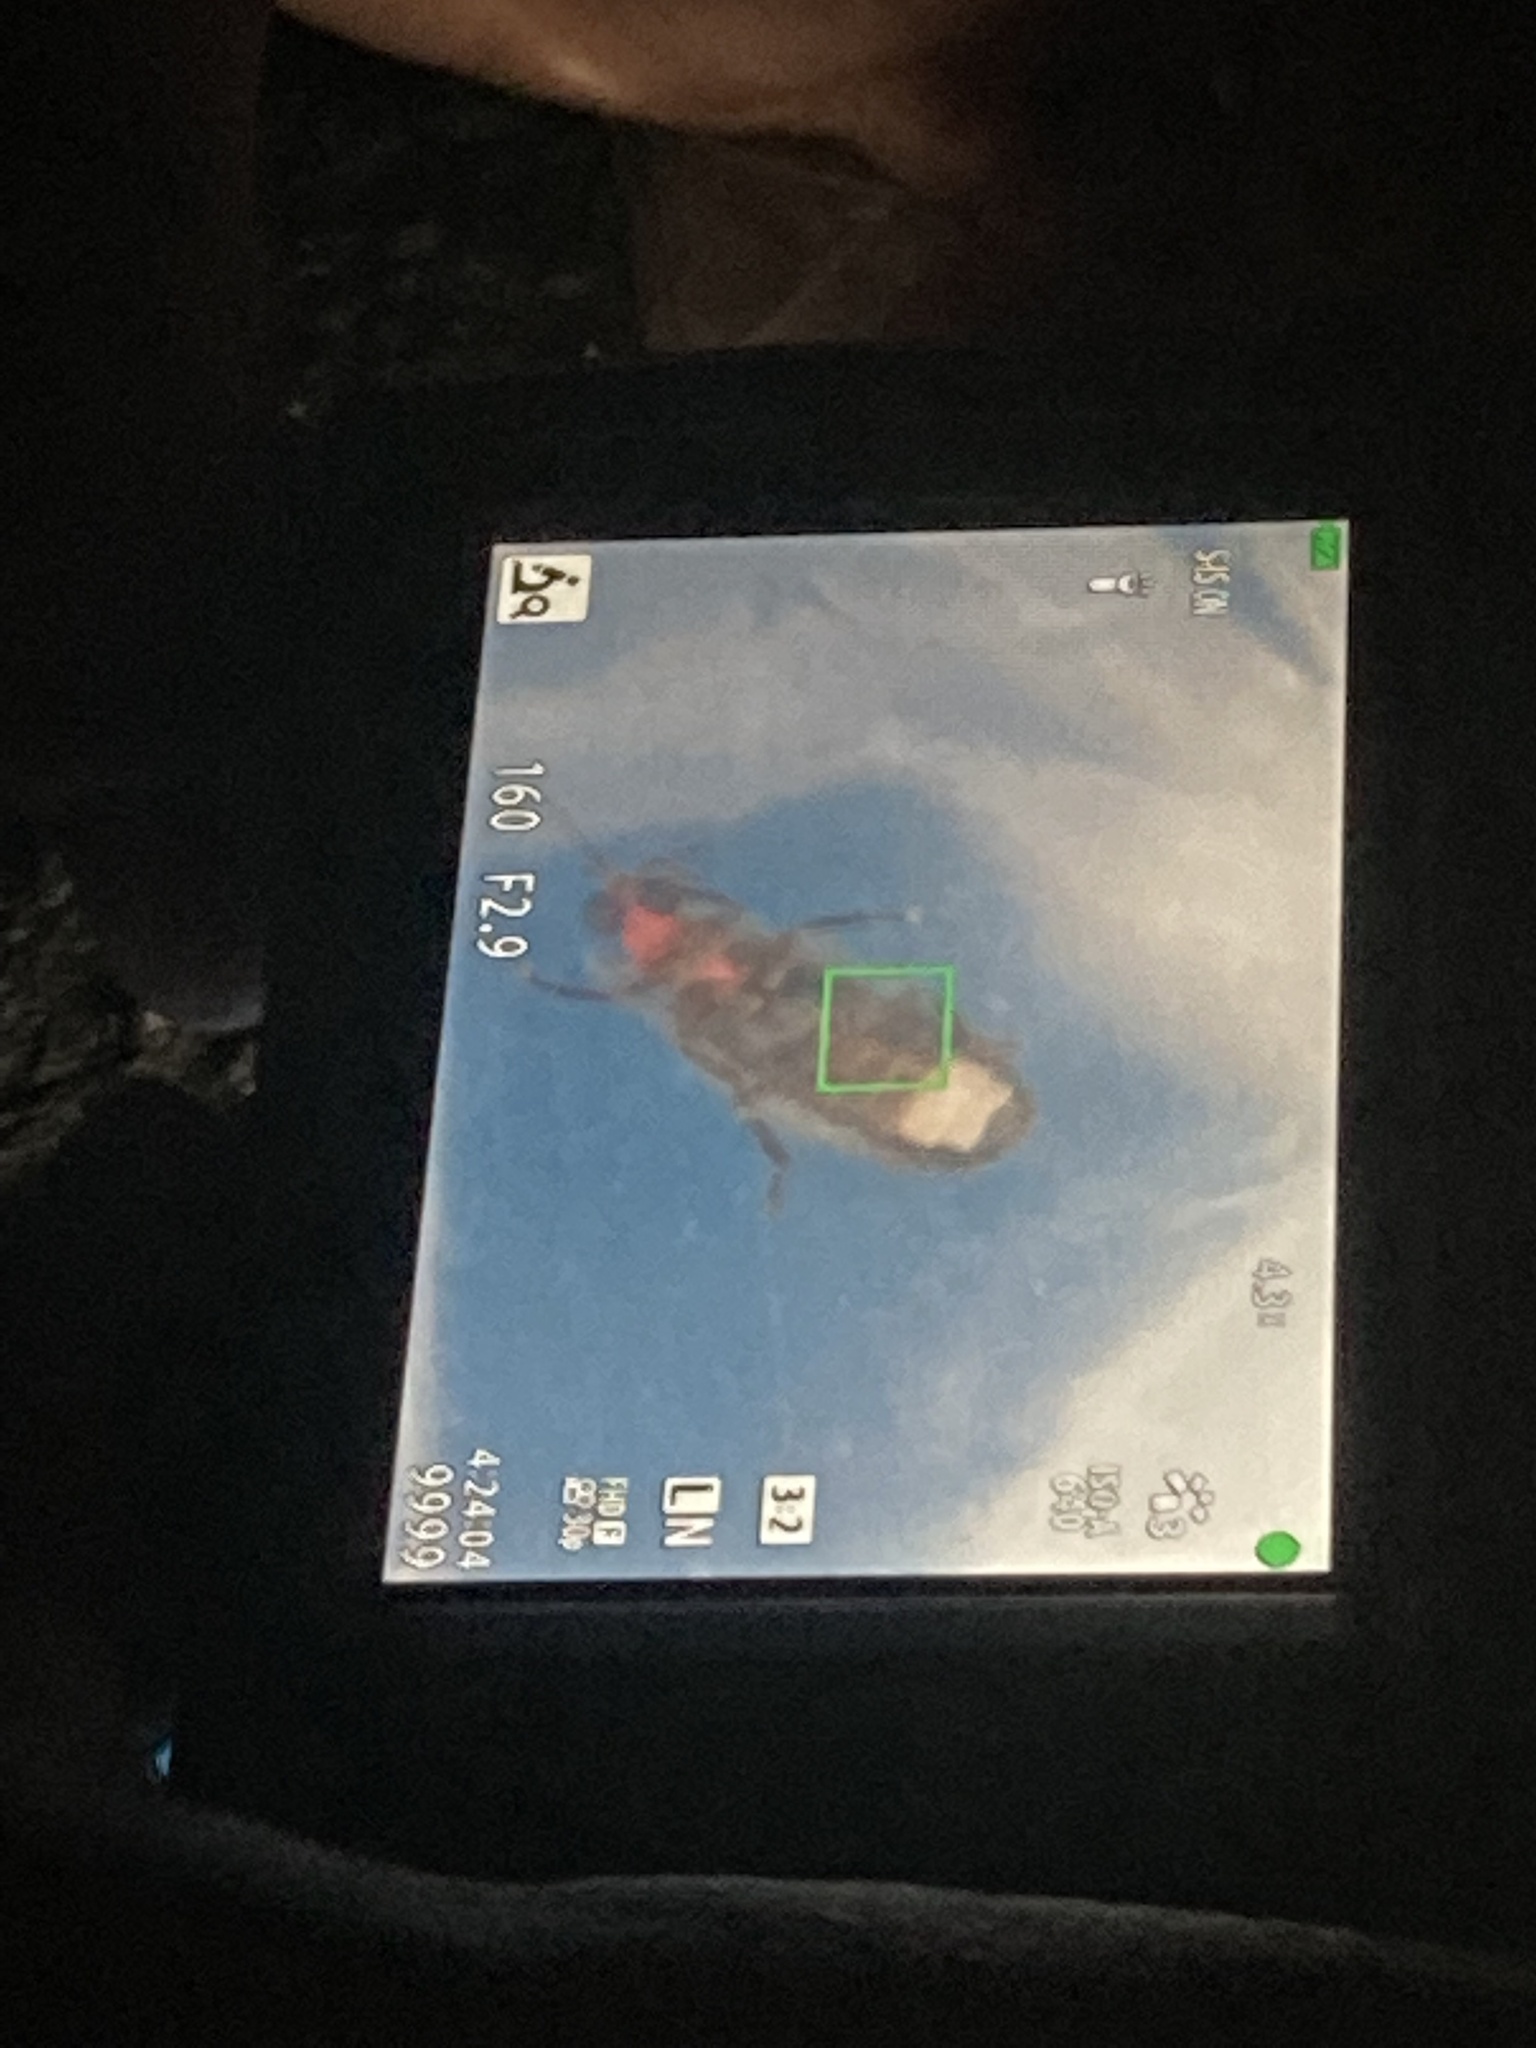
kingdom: Animalia
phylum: Arthropoda
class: Insecta
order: Coleoptera
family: Lampyridae
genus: Micronaspis
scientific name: Micronaspis floridana
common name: Florida intertidal firefly
